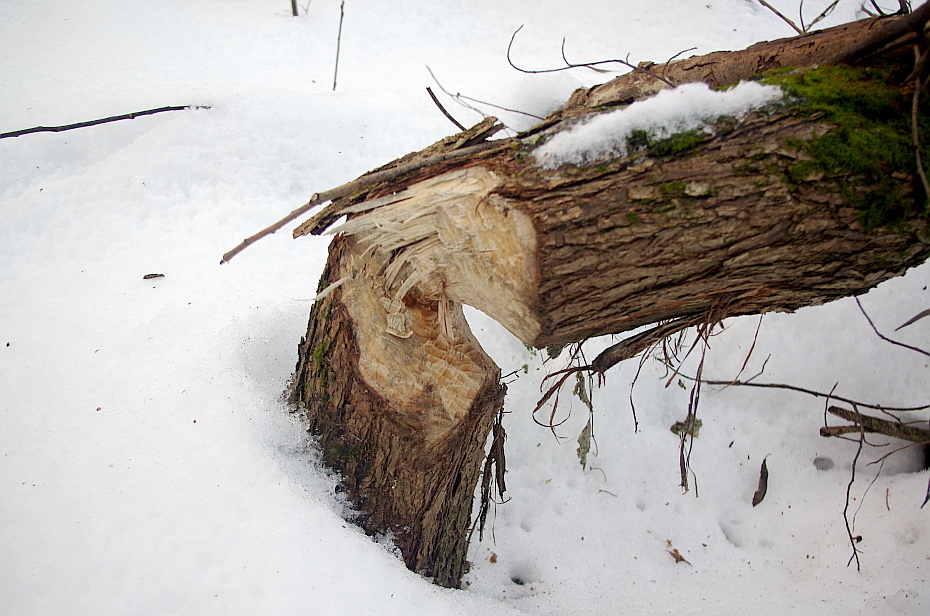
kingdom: Animalia
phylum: Chordata
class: Mammalia
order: Rodentia
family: Castoridae
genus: Castor
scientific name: Castor fiber
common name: Eurasian beaver
